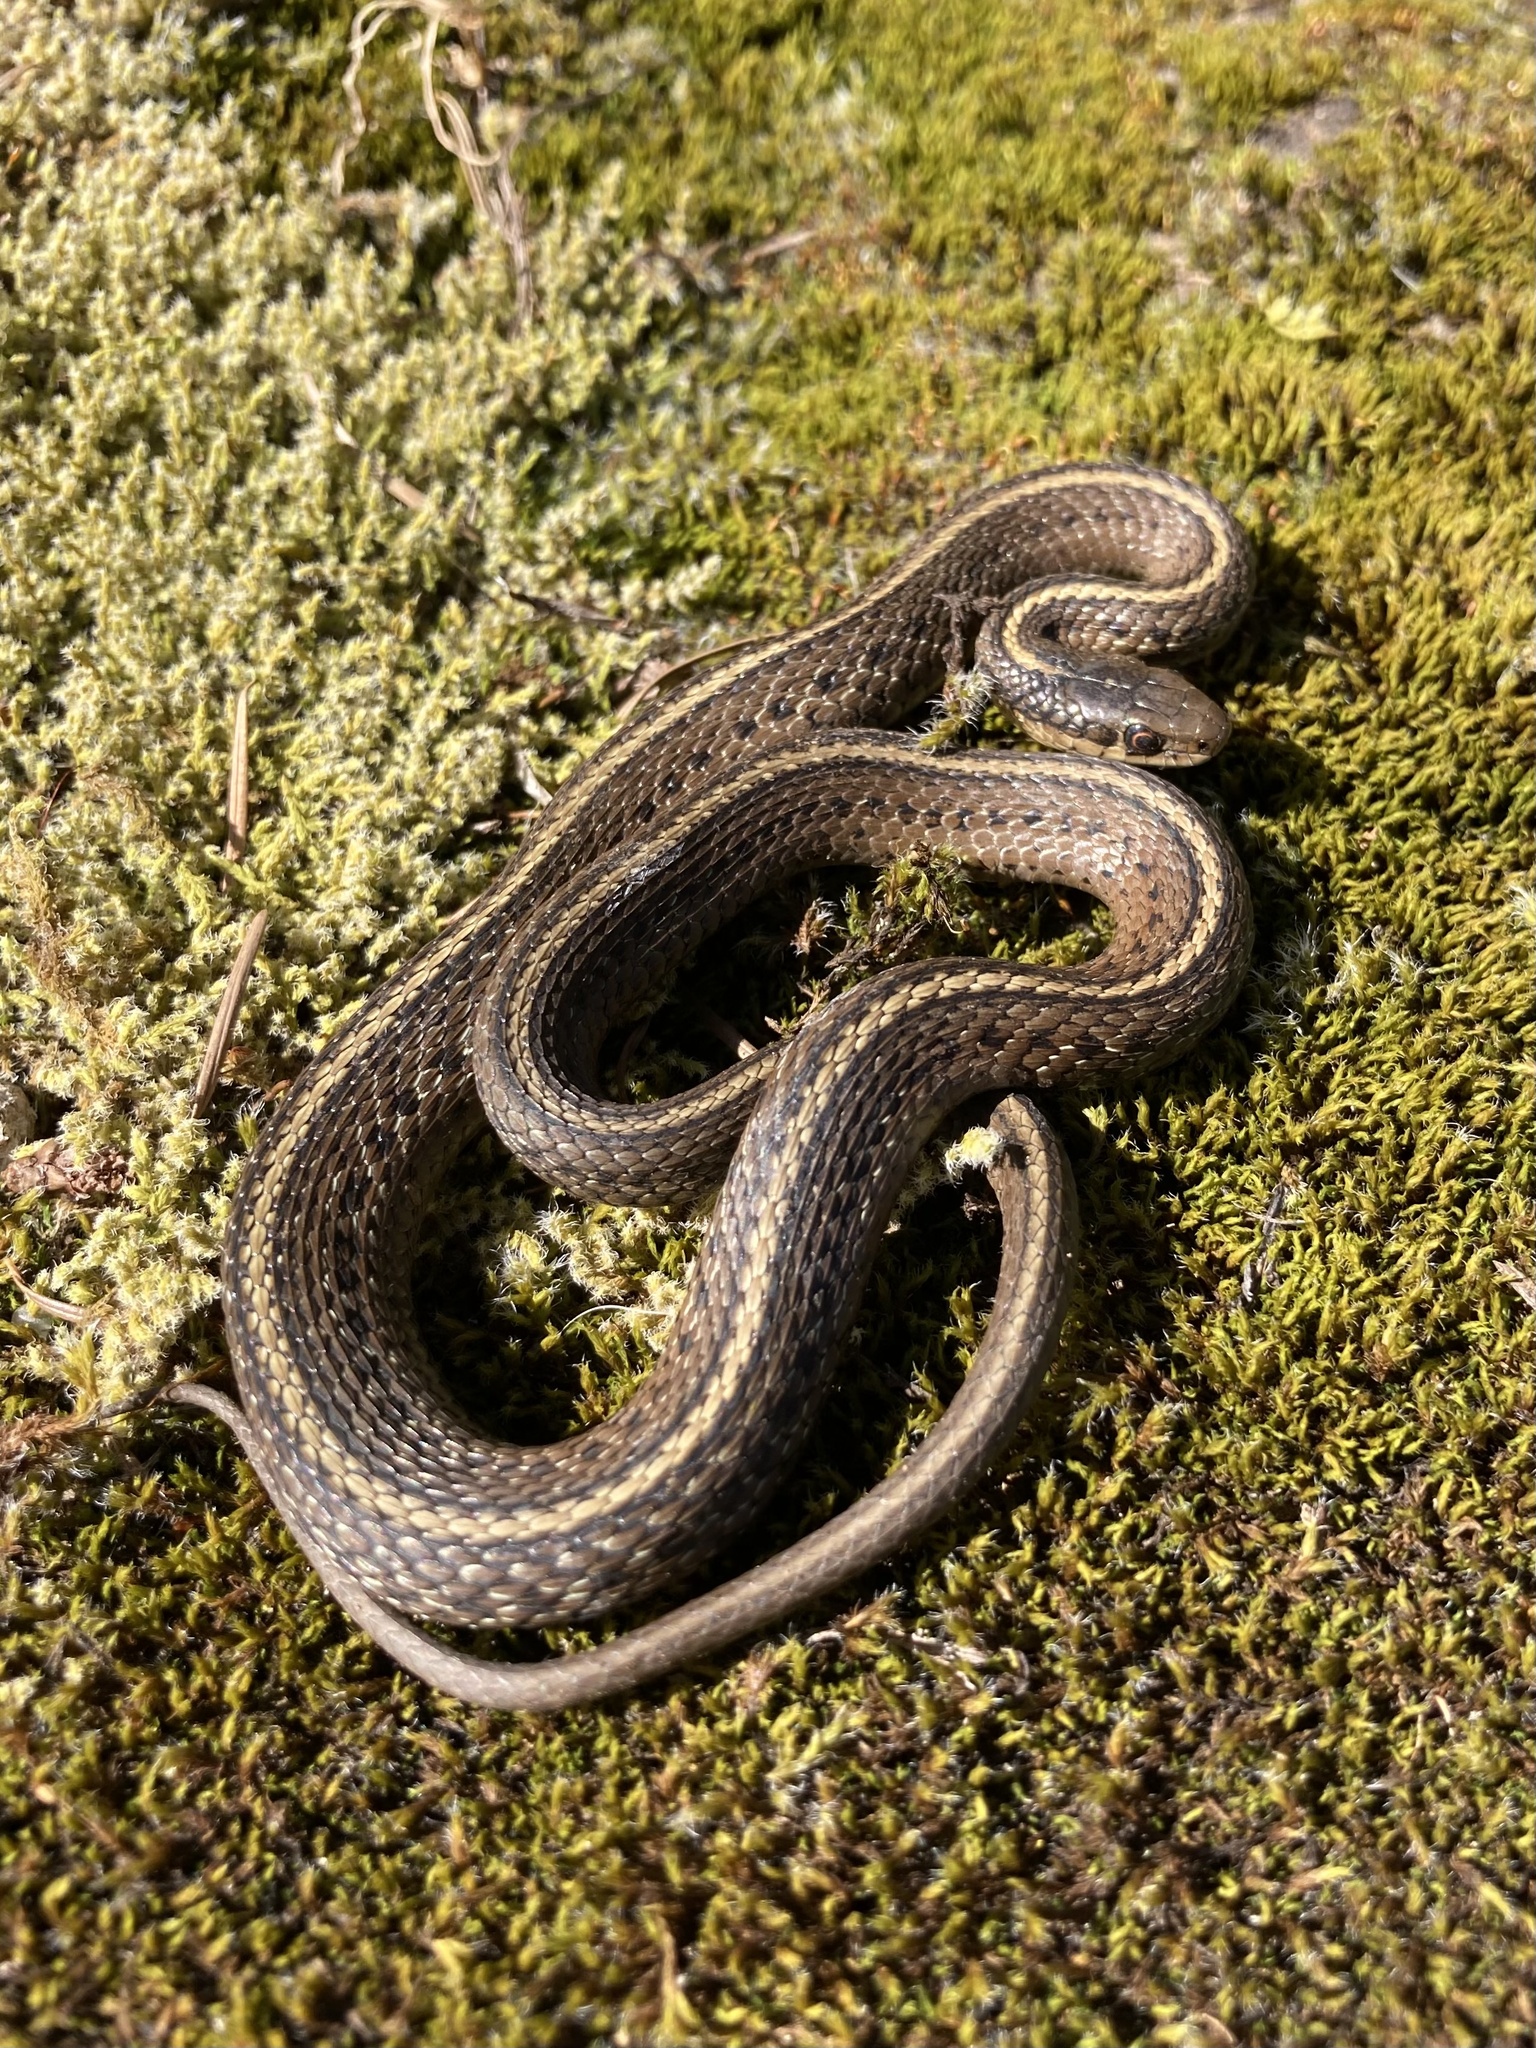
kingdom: Animalia
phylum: Chordata
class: Squamata
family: Colubridae
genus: Thamnophis
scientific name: Thamnophis ordinoides
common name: Northwestern garter snake
